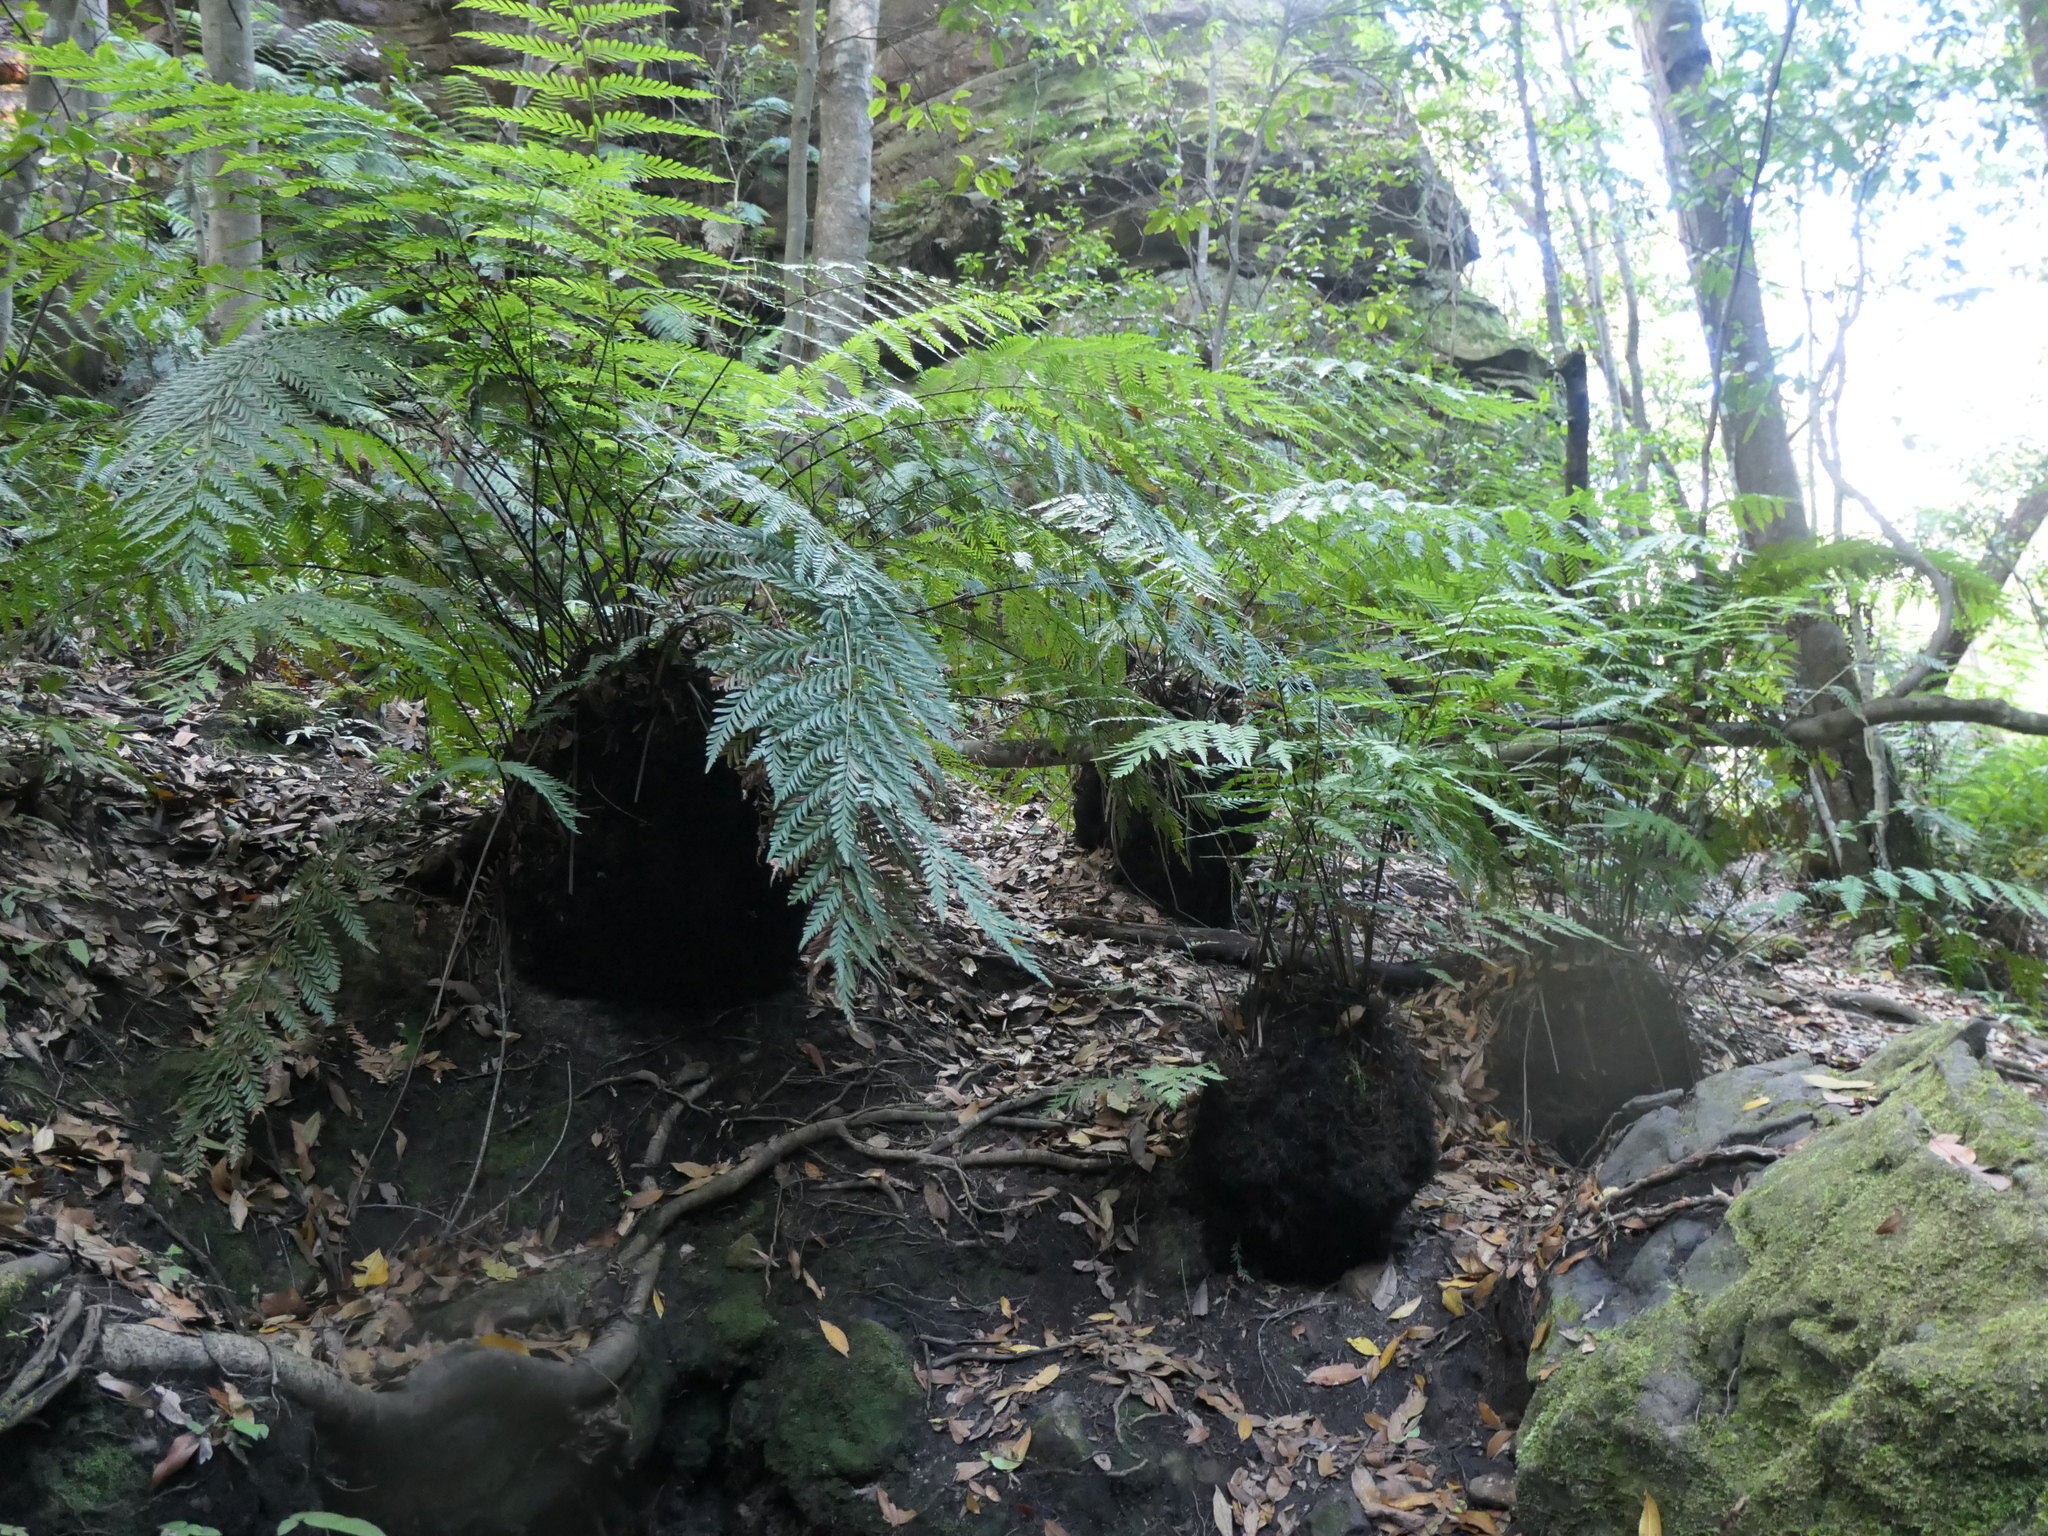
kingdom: Plantae
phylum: Tracheophyta
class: Polypodiopsida
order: Osmundales
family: Osmundaceae
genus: Todea
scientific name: Todea barbara
